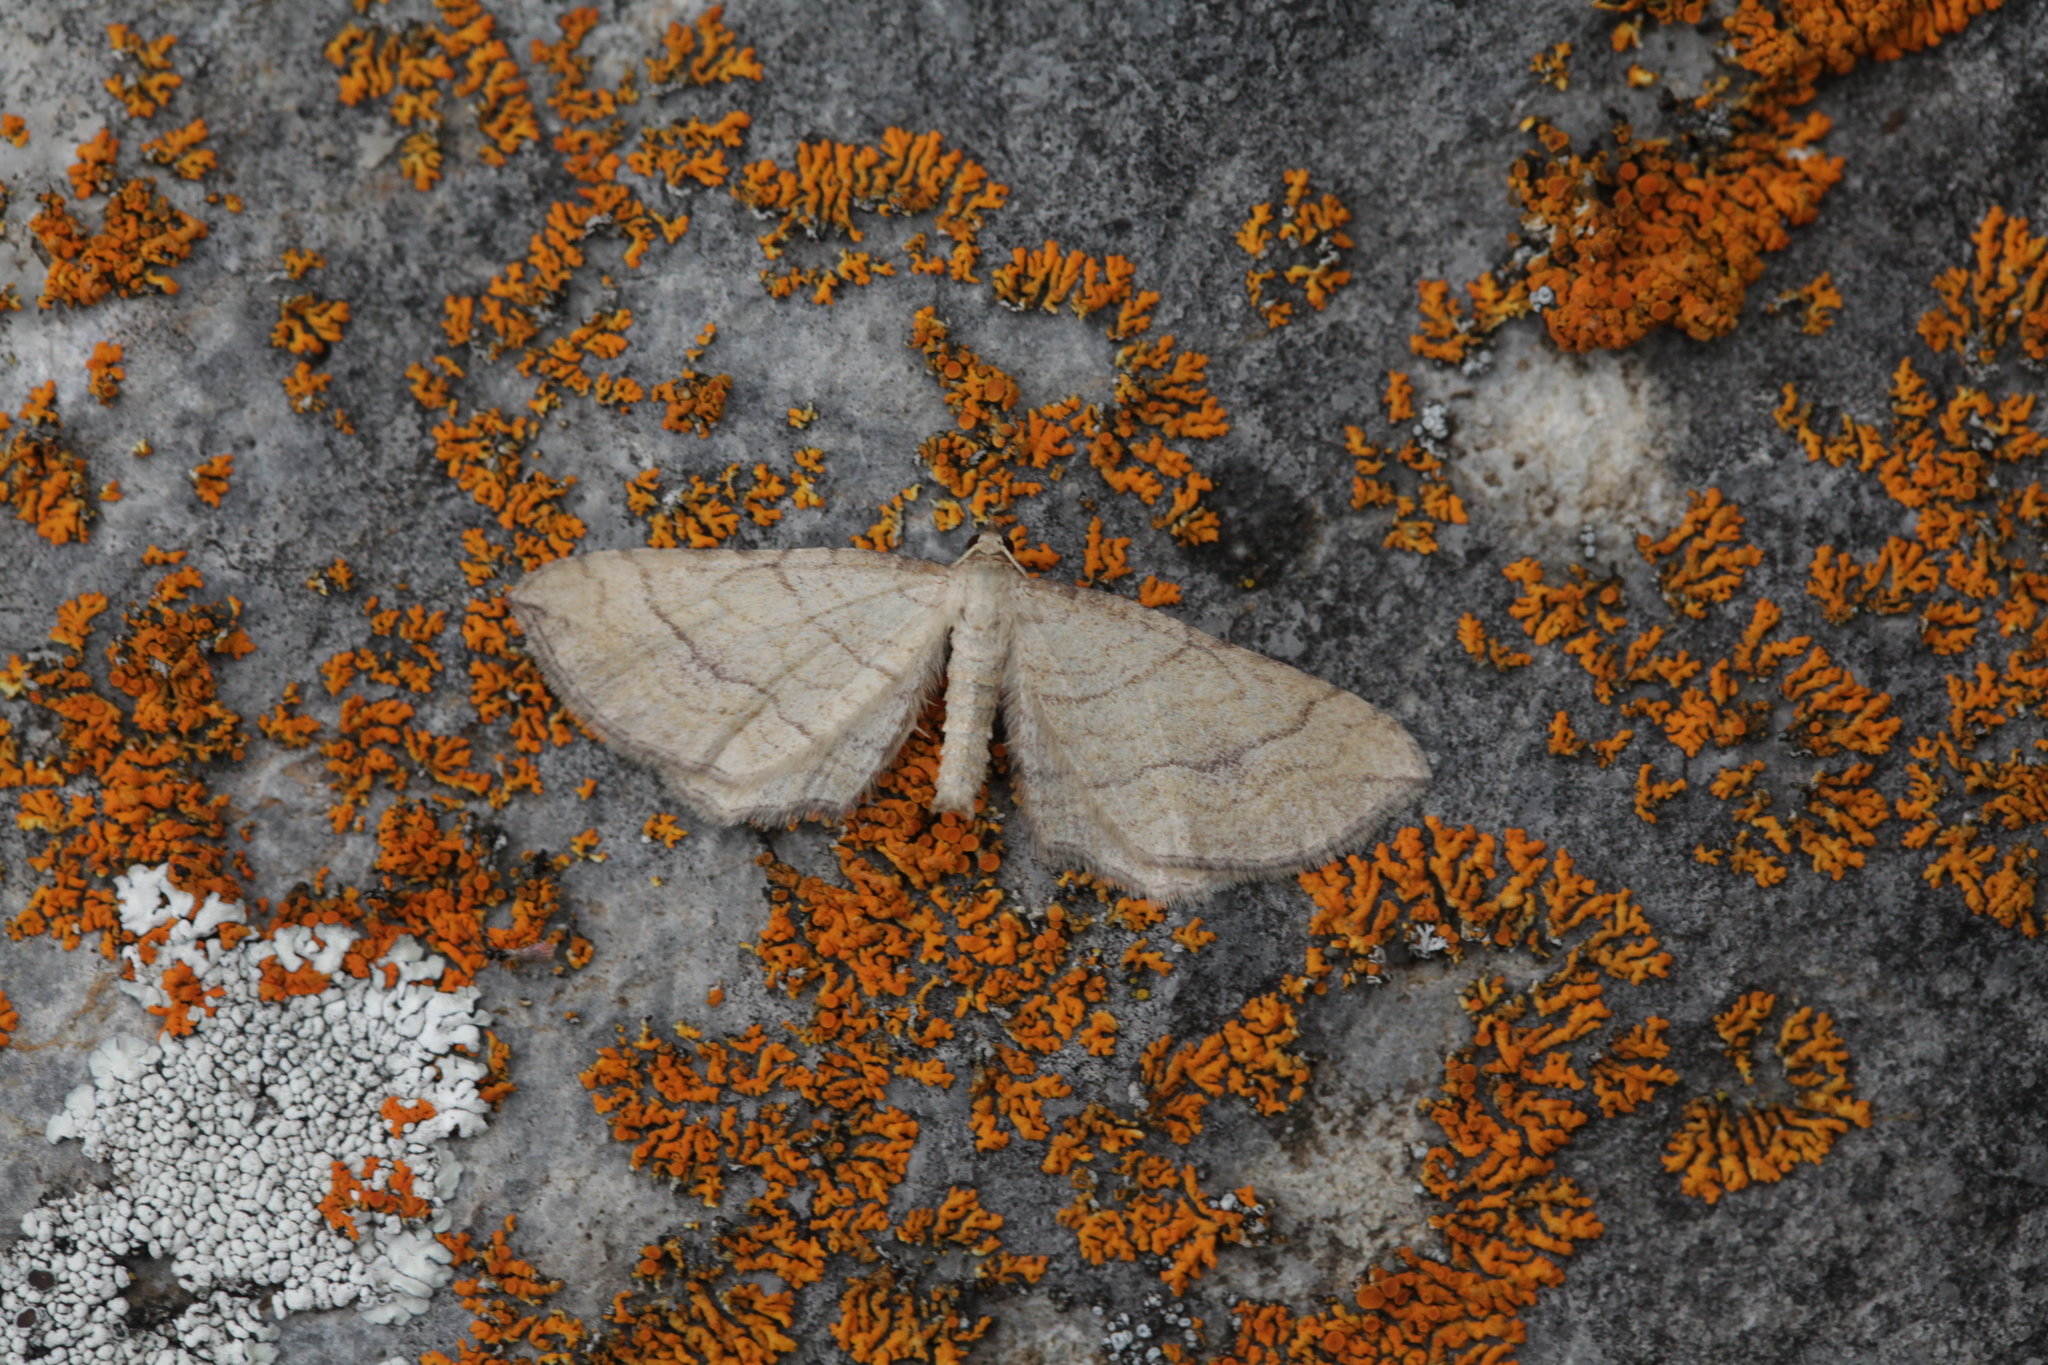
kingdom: Animalia
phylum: Arthropoda
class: Insecta
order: Lepidoptera
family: Geometridae
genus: Coenocalpe
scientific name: Coenocalpe lapidata
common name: Slender-striped rufous
